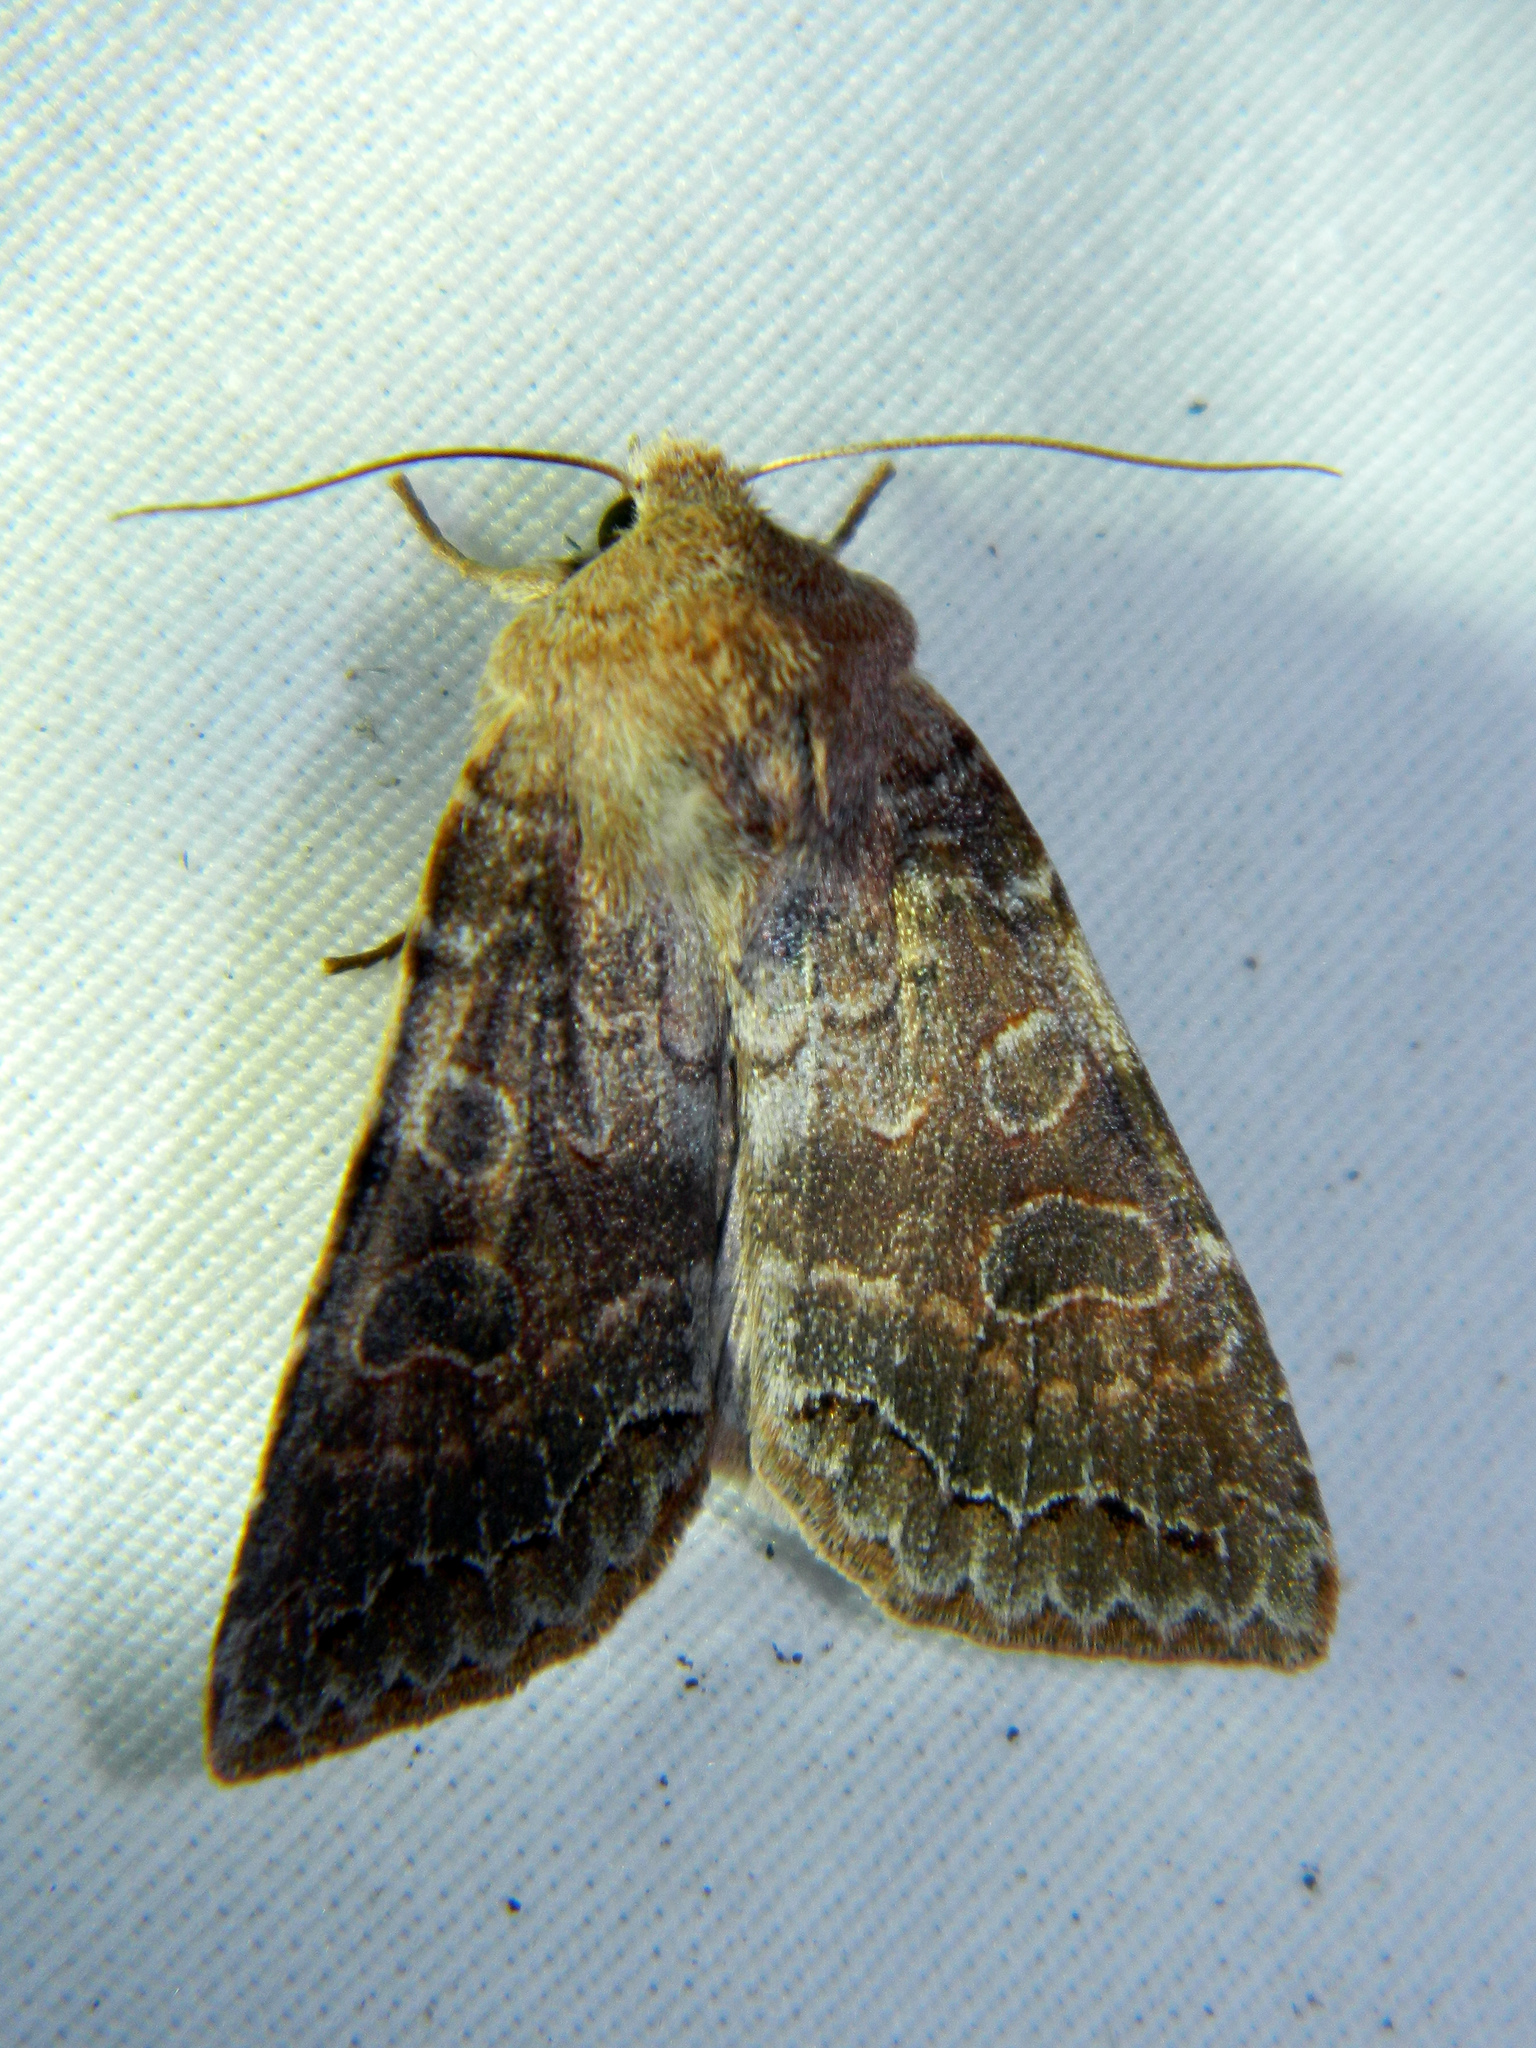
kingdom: Animalia
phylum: Arthropoda
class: Insecta
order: Lepidoptera
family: Noctuidae
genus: Orthosia
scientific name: Orthosia revicta
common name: Rusty whitesided caterpillar
